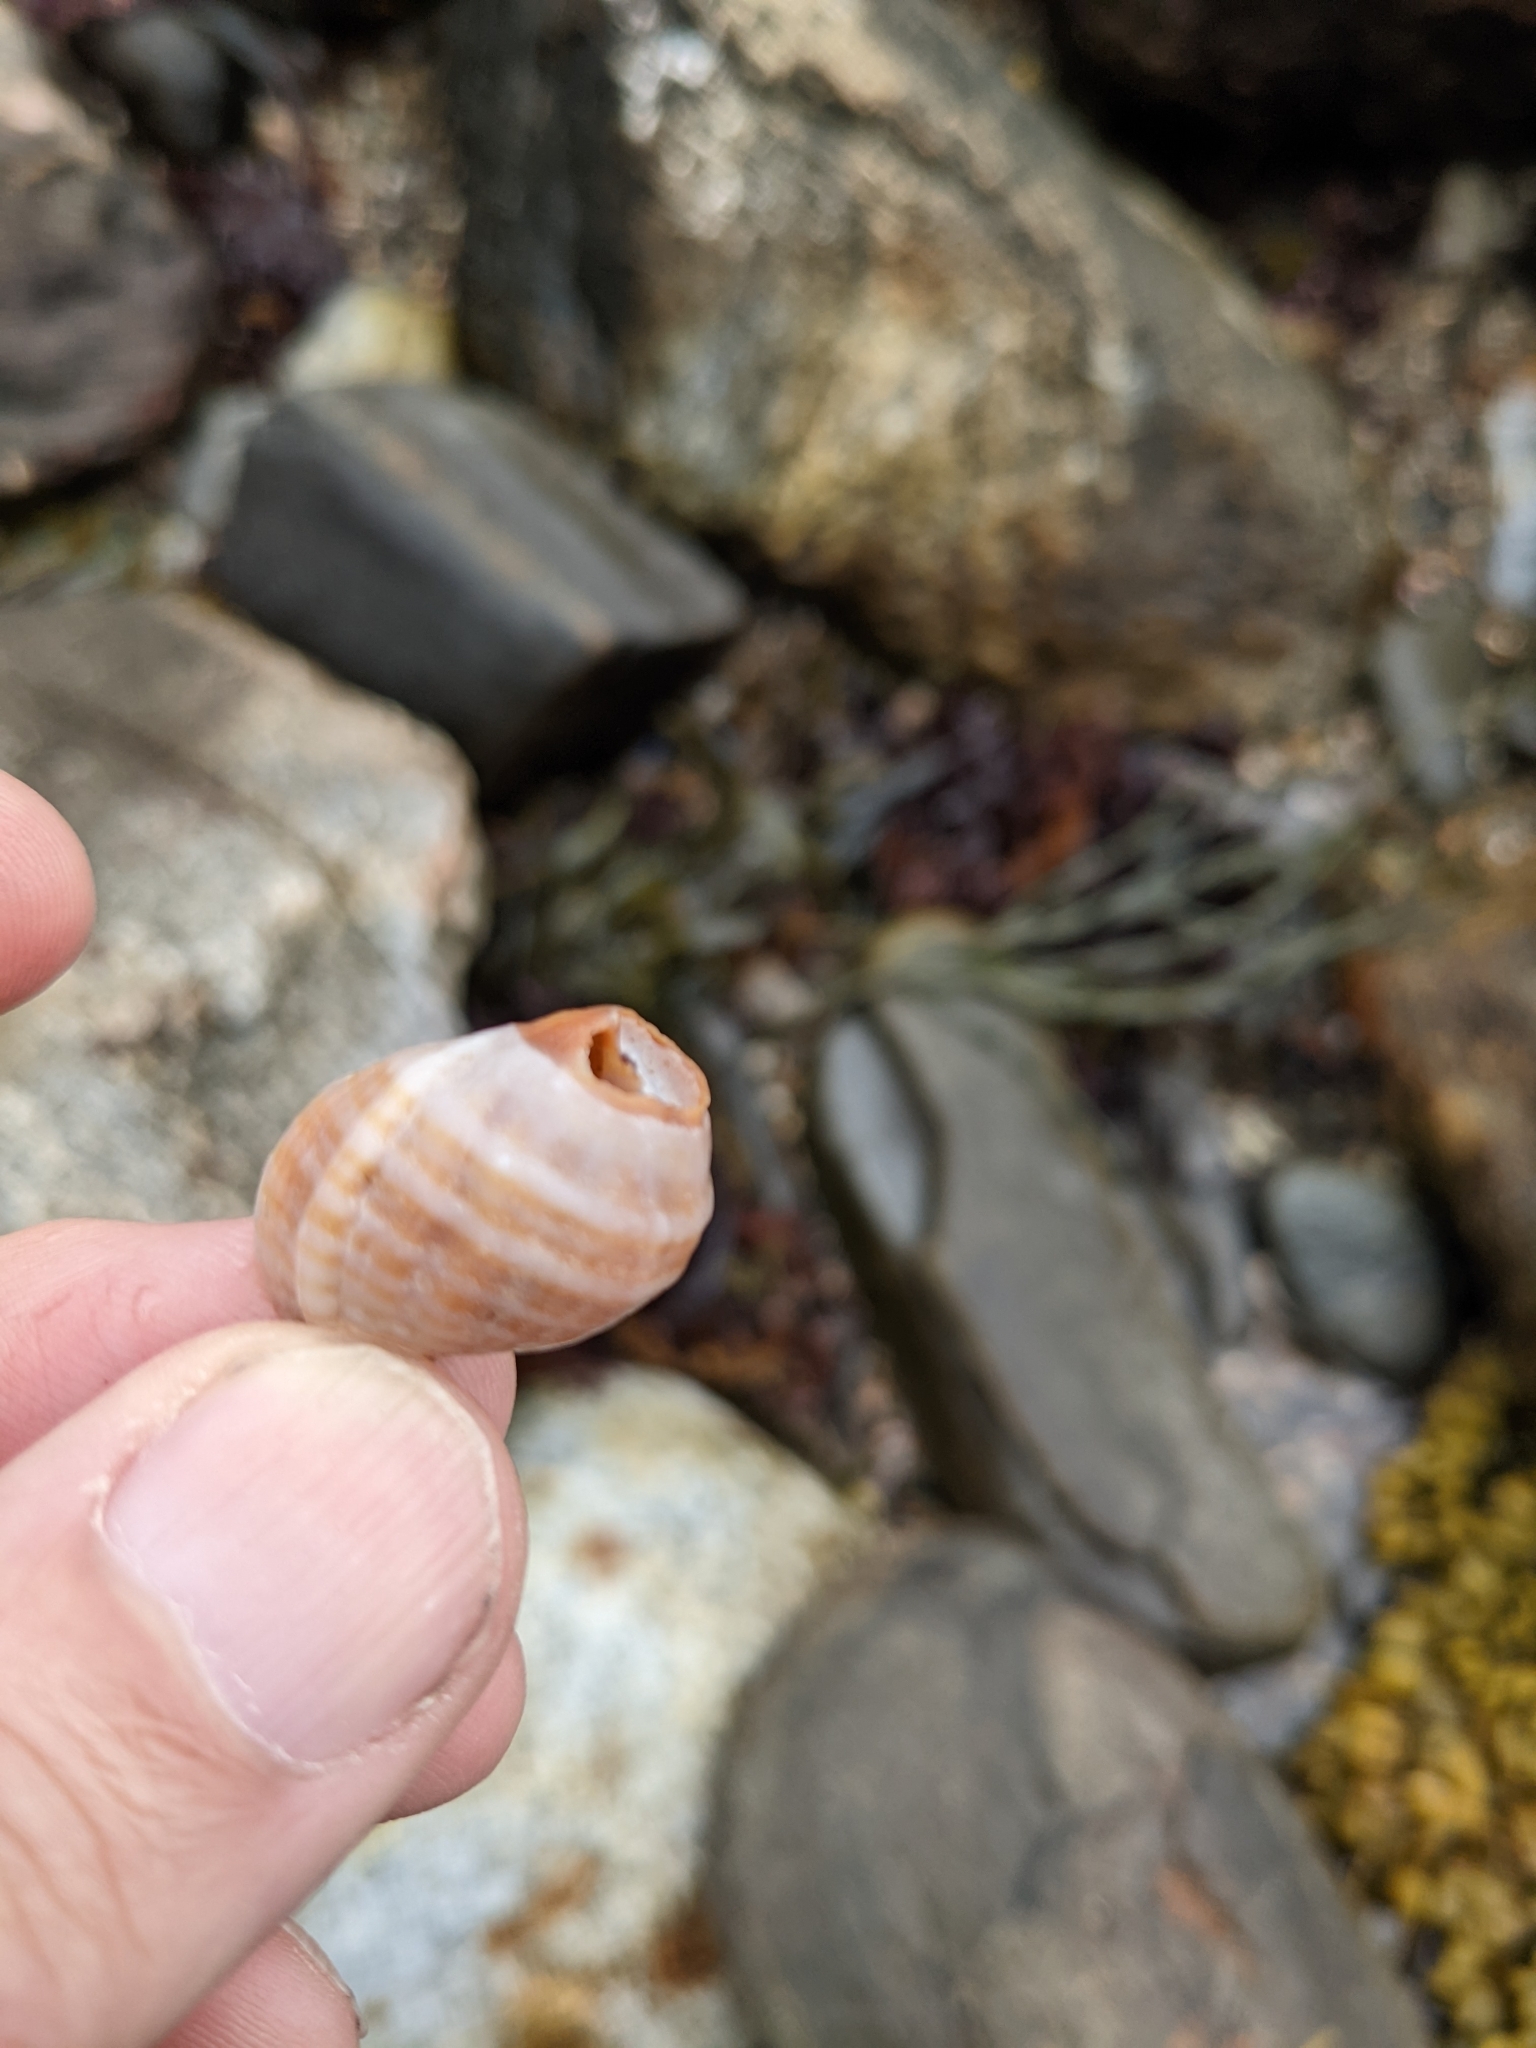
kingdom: Animalia
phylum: Mollusca
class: Gastropoda
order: Neogastropoda
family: Muricidae
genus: Nucella
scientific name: Nucella lapillus
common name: Dog whelk
